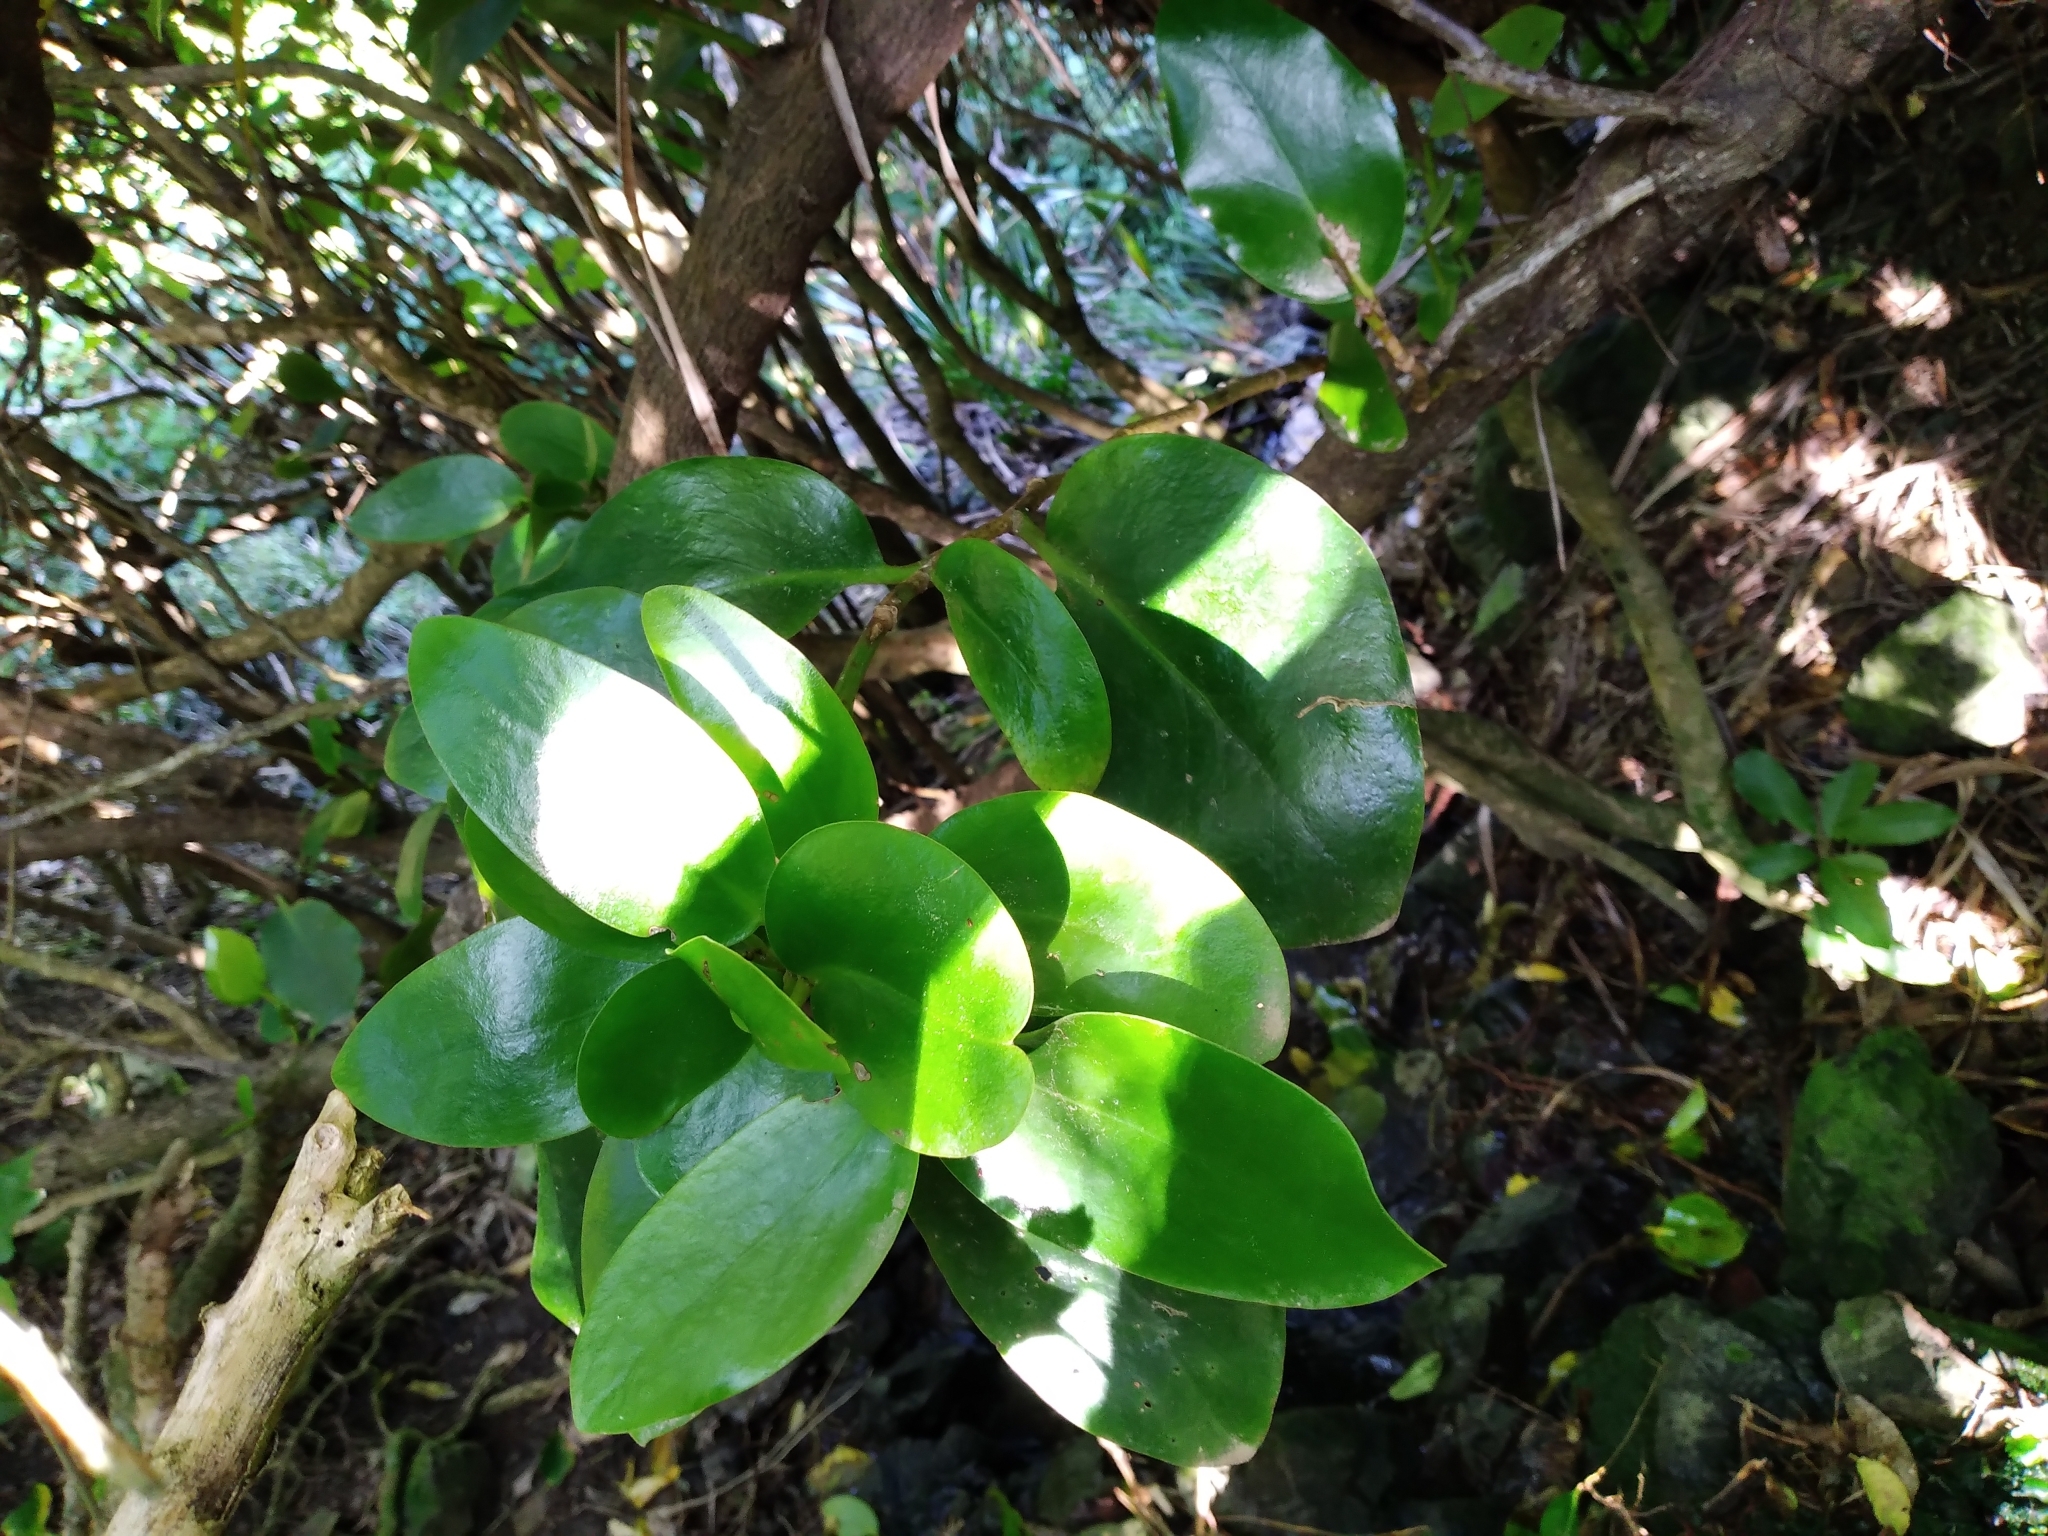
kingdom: Plantae
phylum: Tracheophyta
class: Magnoliopsida
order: Apiales
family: Griseliniaceae
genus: Griselinia
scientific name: Griselinia lucida
